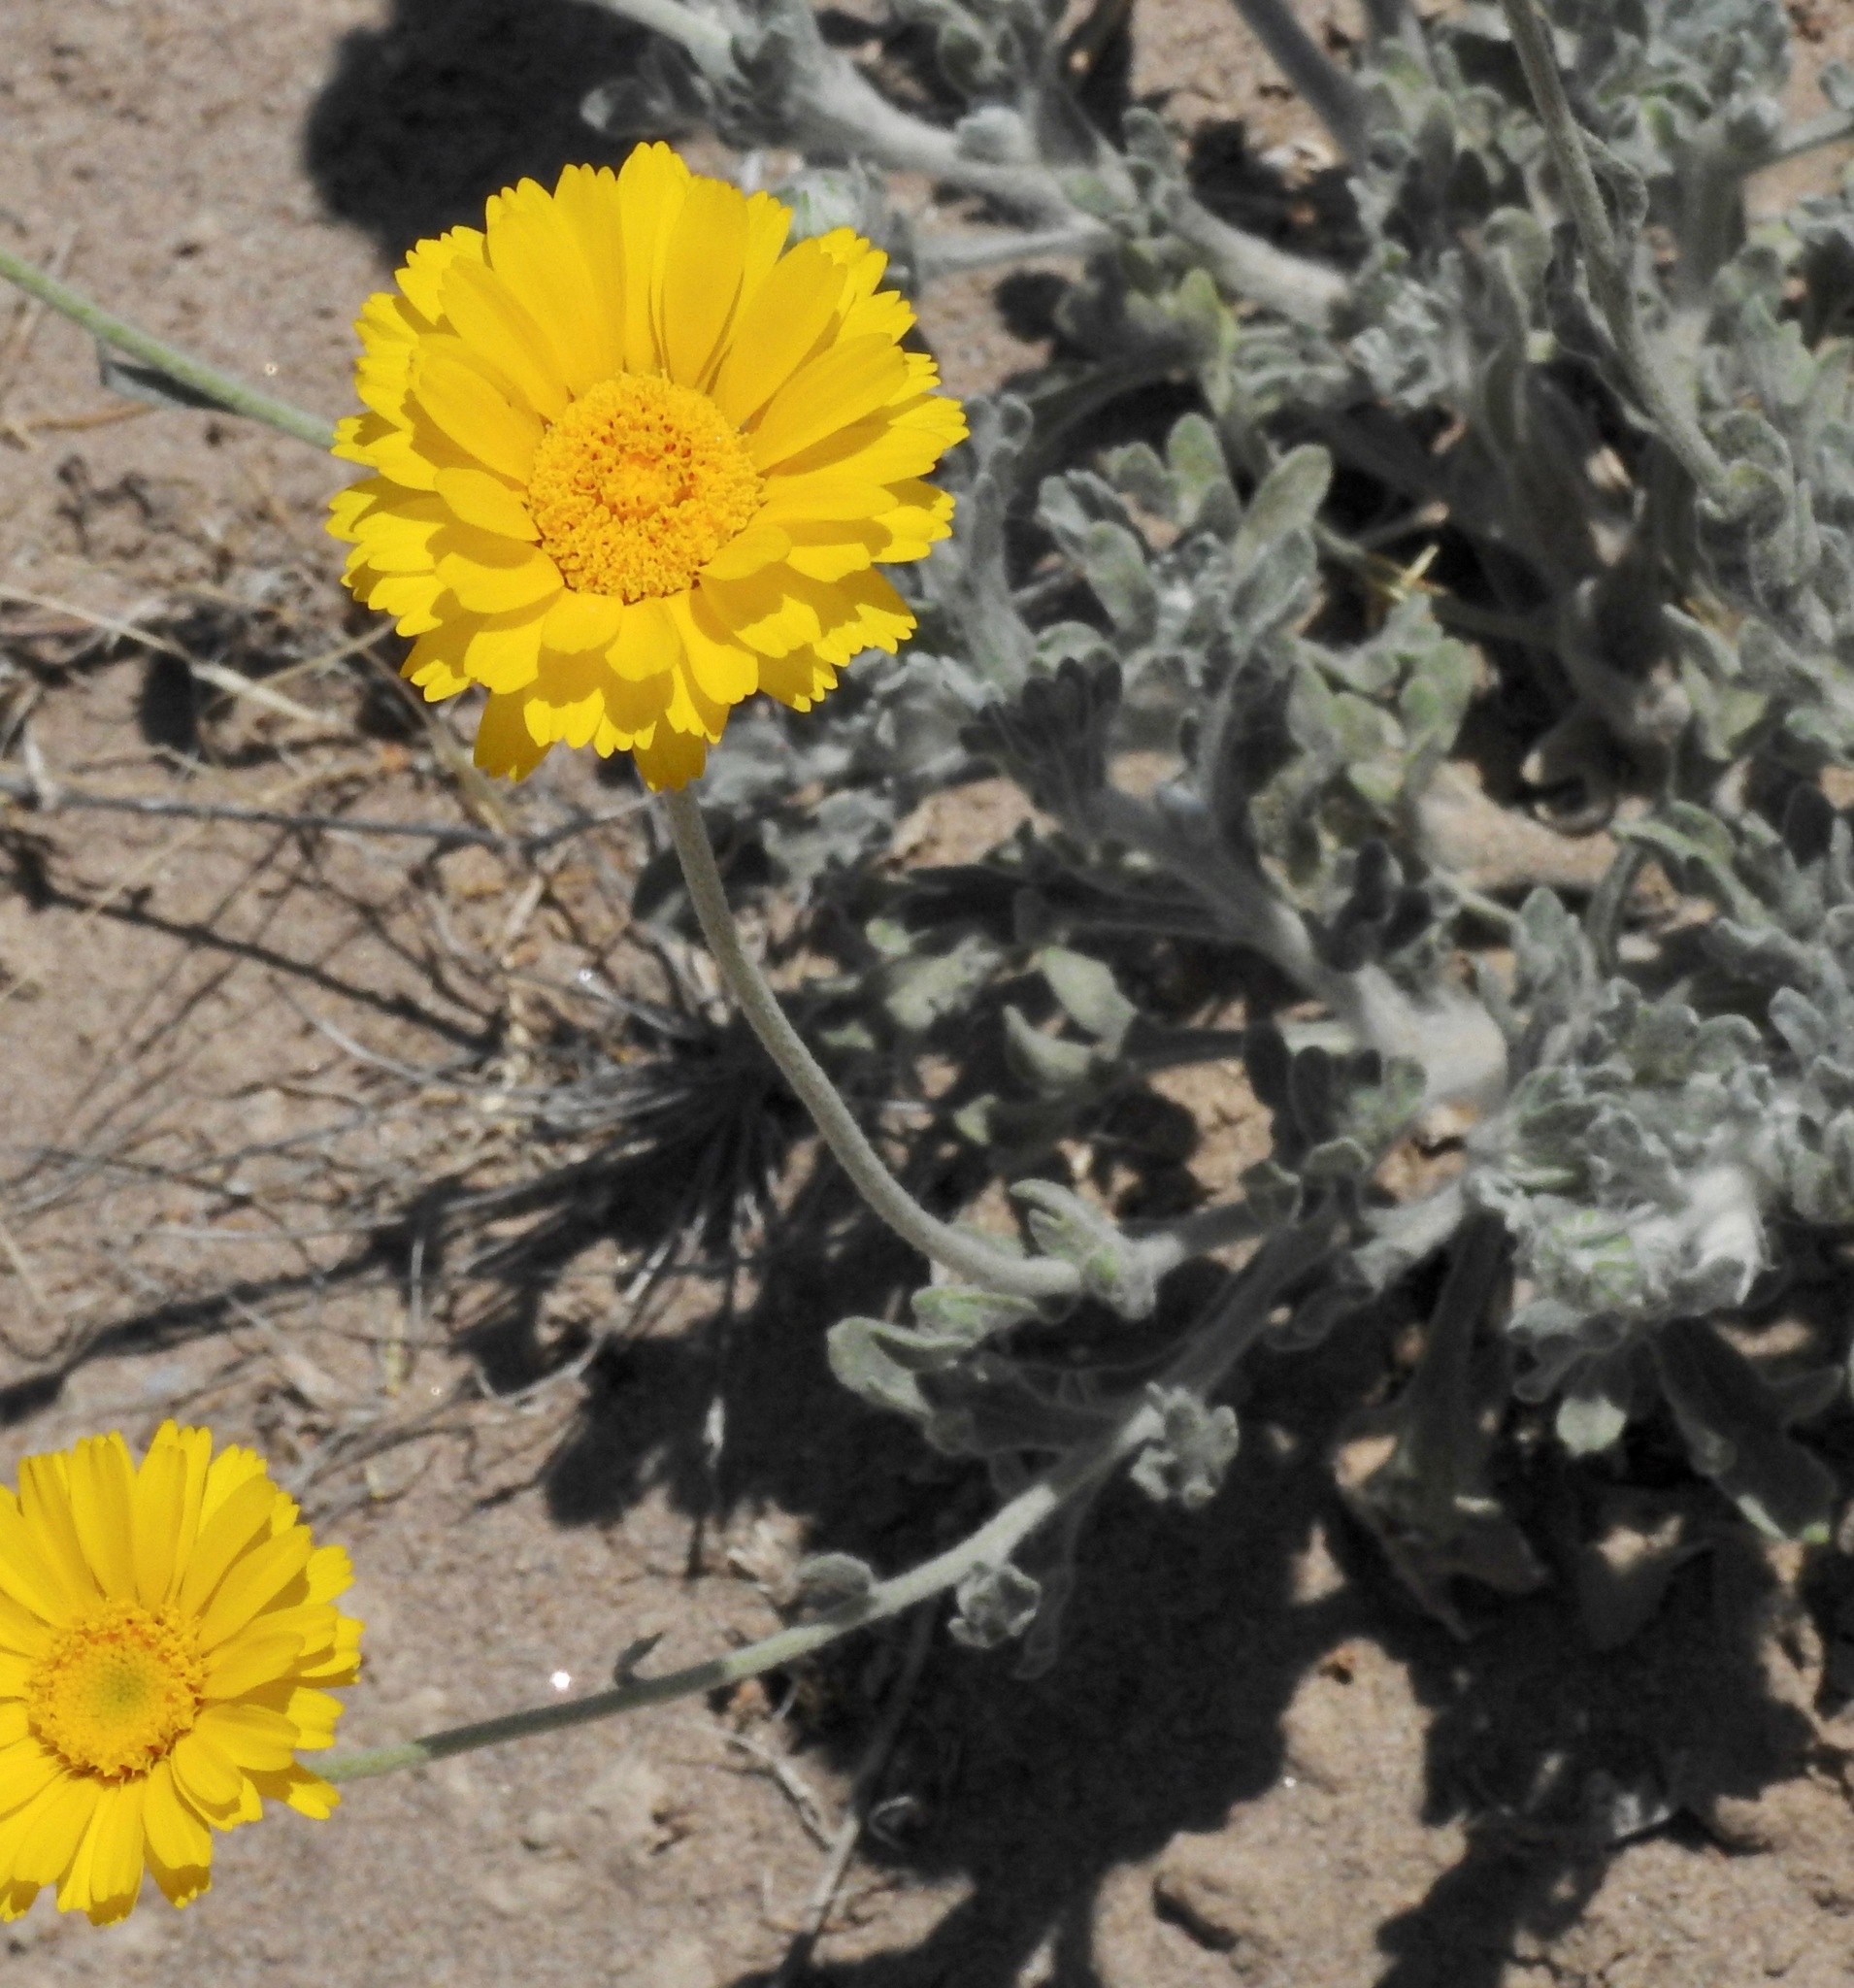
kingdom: Plantae
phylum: Tracheophyta
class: Magnoliopsida
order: Asterales
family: Asteraceae
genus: Baileya
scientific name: Baileya multiradiata
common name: Desert-marigold
